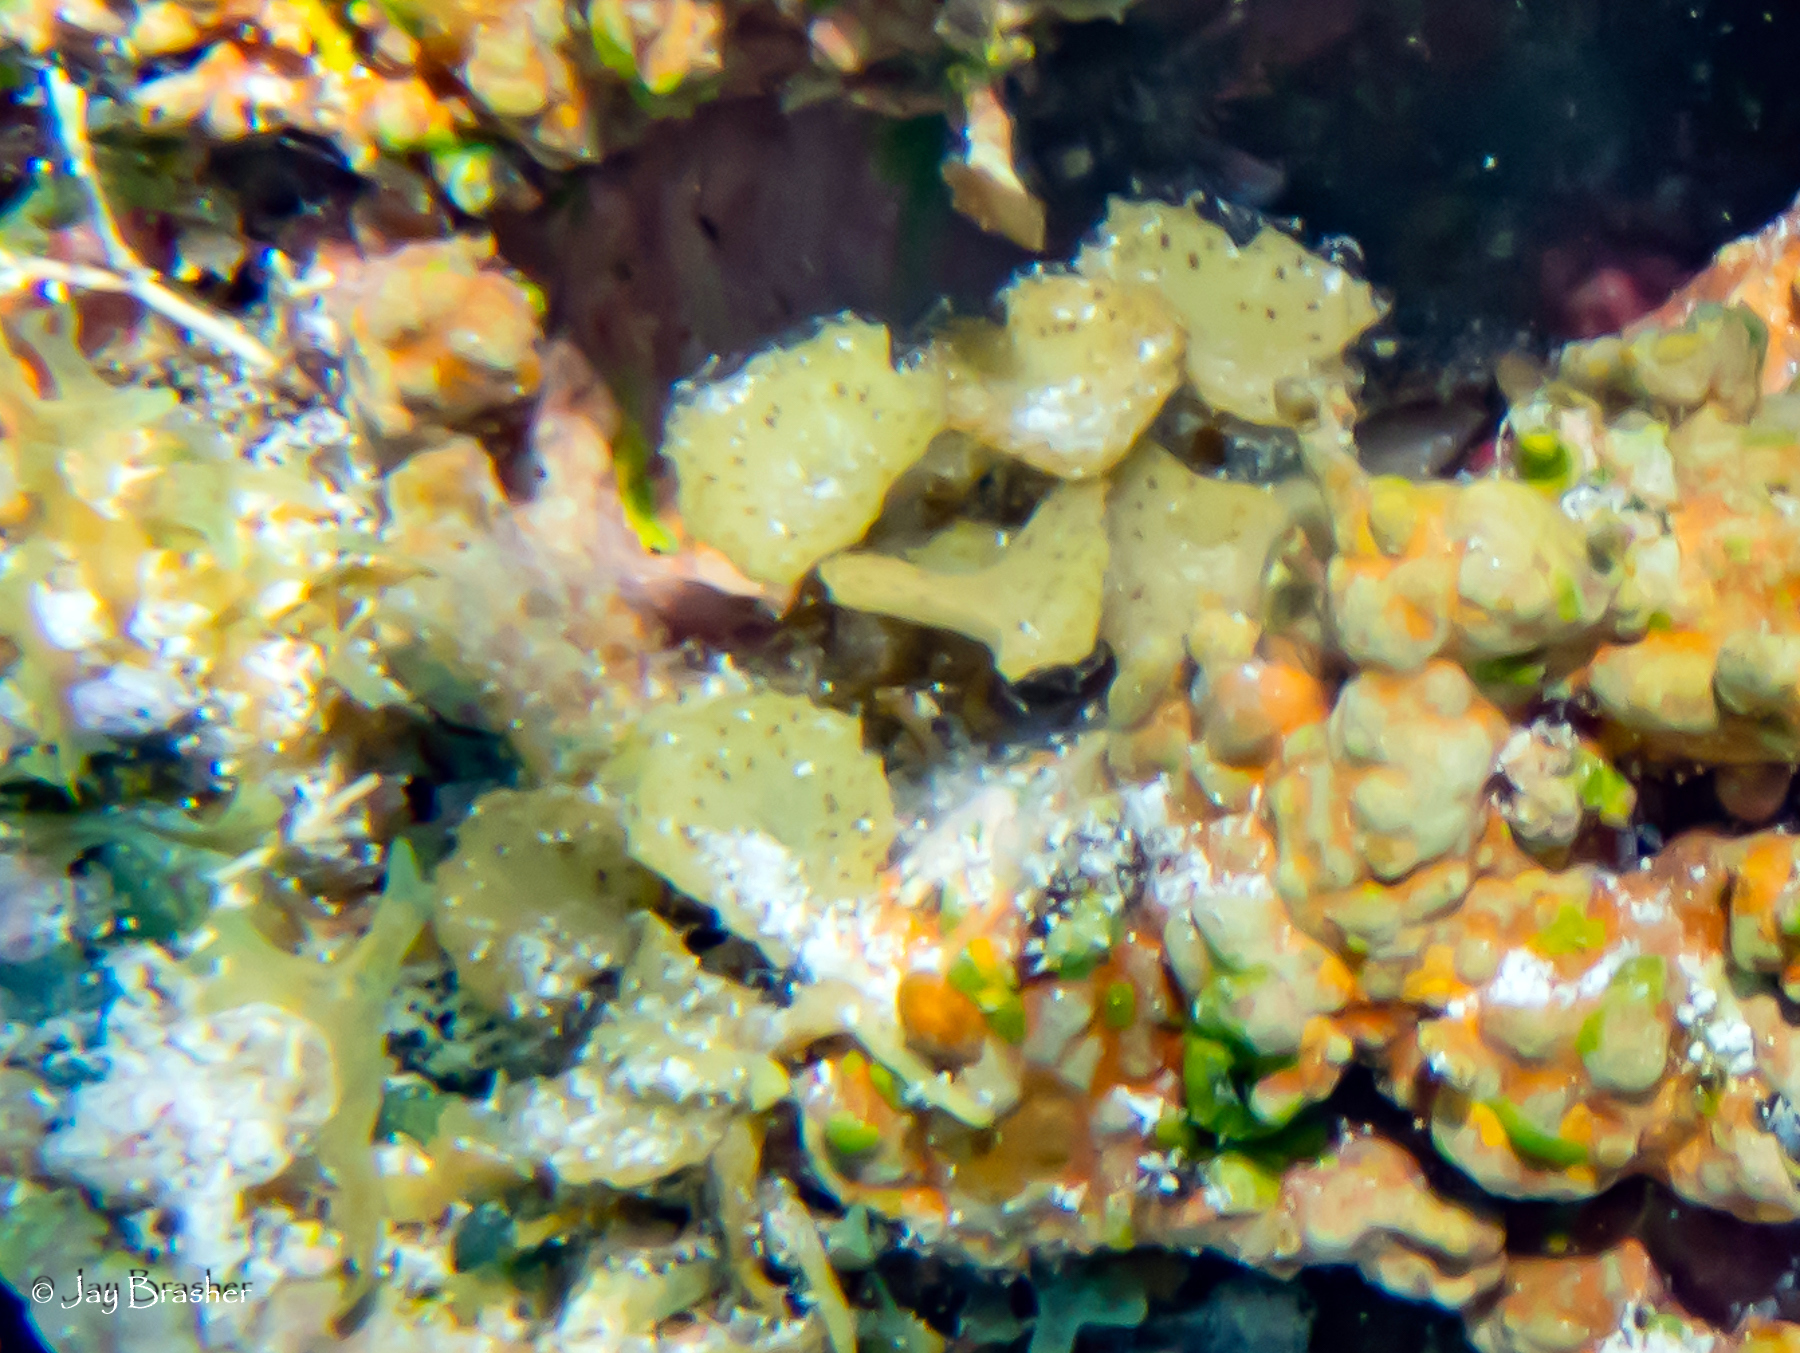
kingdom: Chromista
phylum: Ochrophyta
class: Phaeophyceae
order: Fucales
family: Sargassaceae
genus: Turbinaria
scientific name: Turbinaria turbinata
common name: Blistered saucer leaf algae
